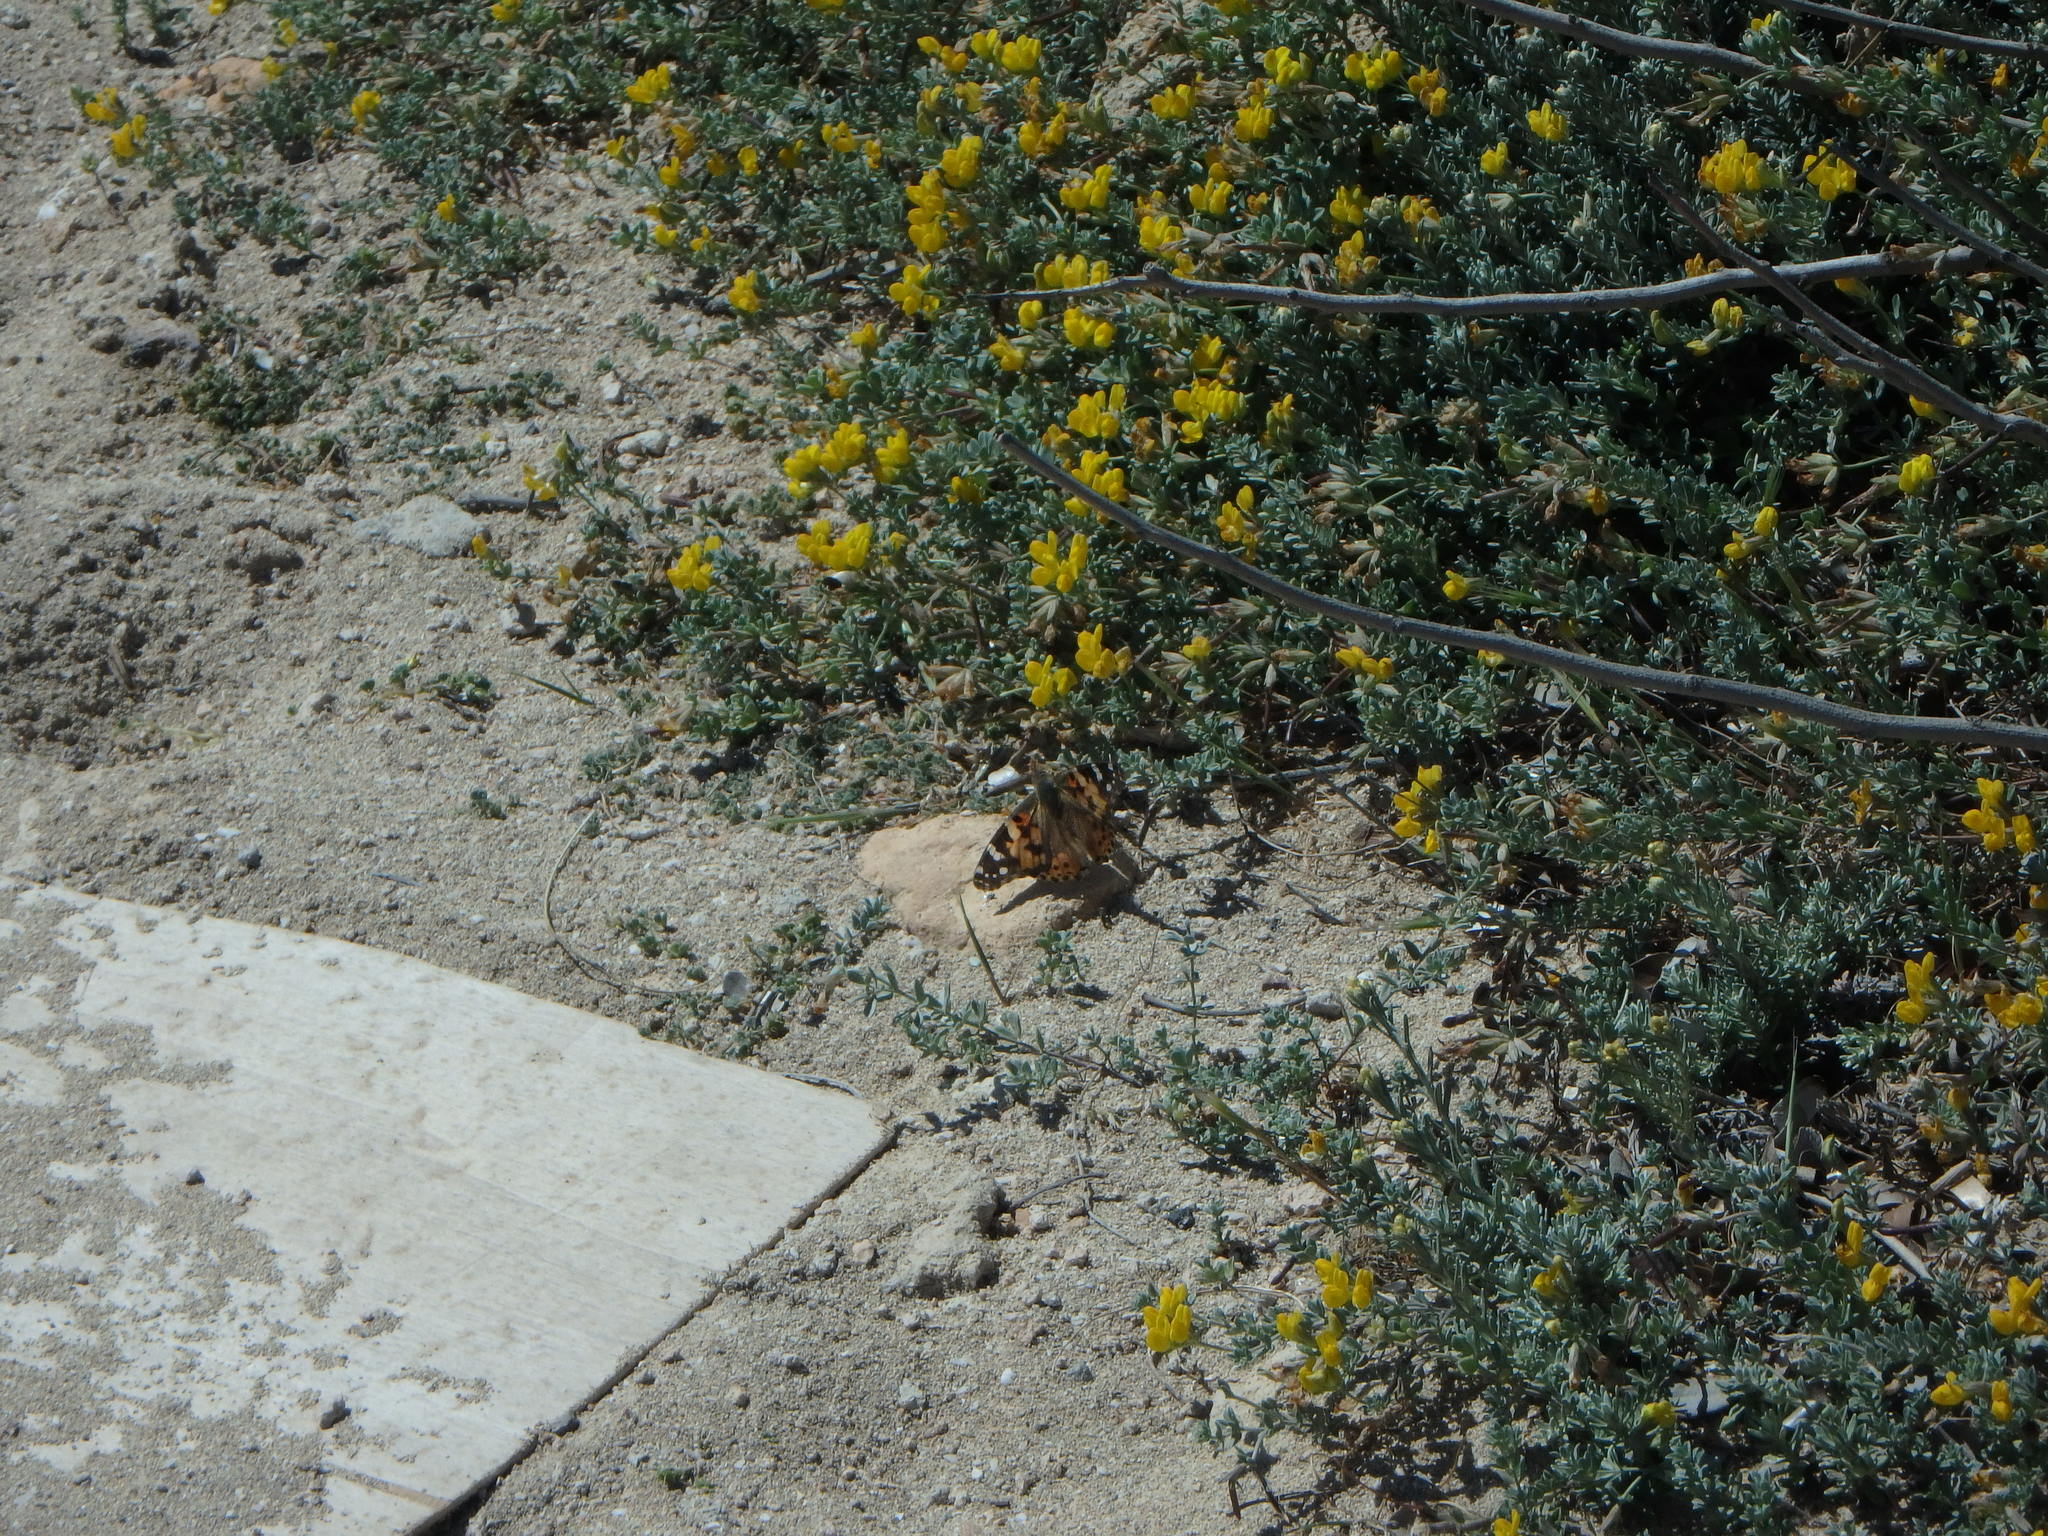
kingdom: Animalia
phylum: Arthropoda
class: Insecta
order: Lepidoptera
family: Nymphalidae
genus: Vanessa
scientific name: Vanessa cardui
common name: Painted lady
